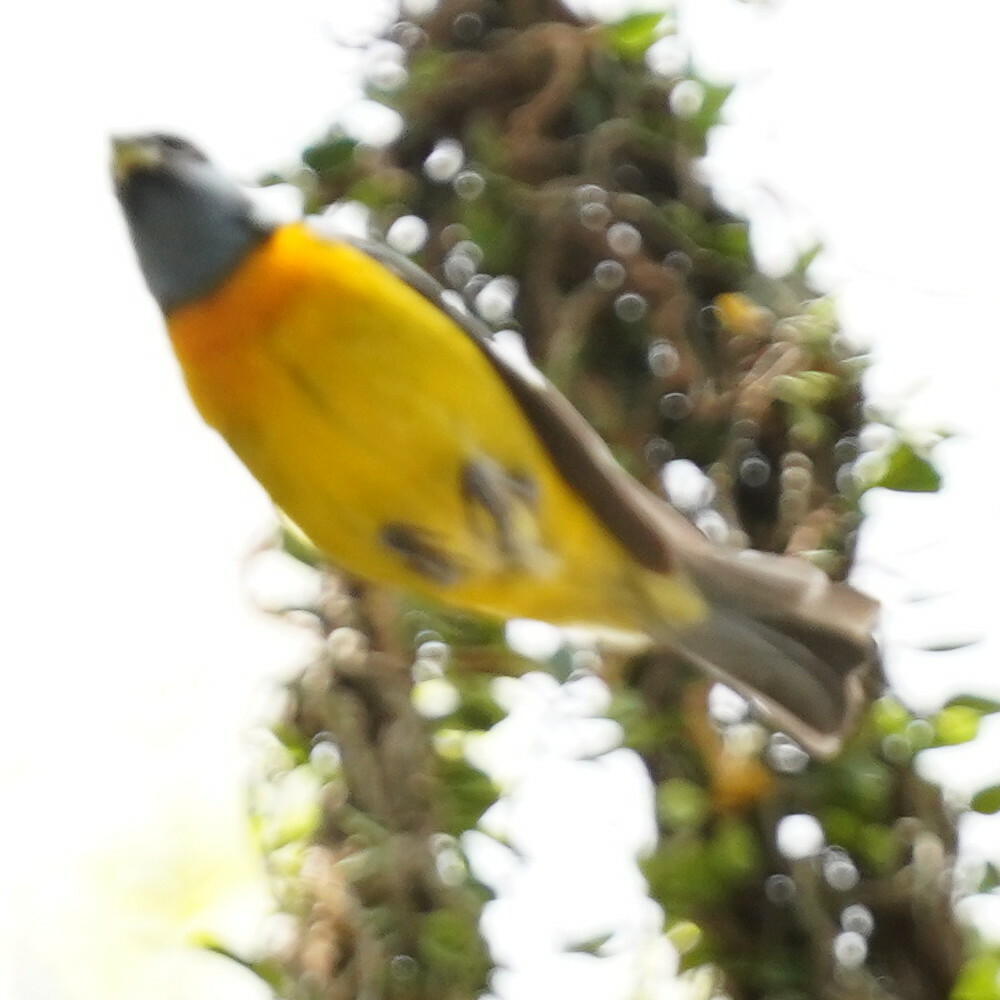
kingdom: Animalia
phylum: Chordata
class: Aves
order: Passeriformes
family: Thraupidae
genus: Rauenia
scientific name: Rauenia bonariensis
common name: Blue-and-yellow tanager
